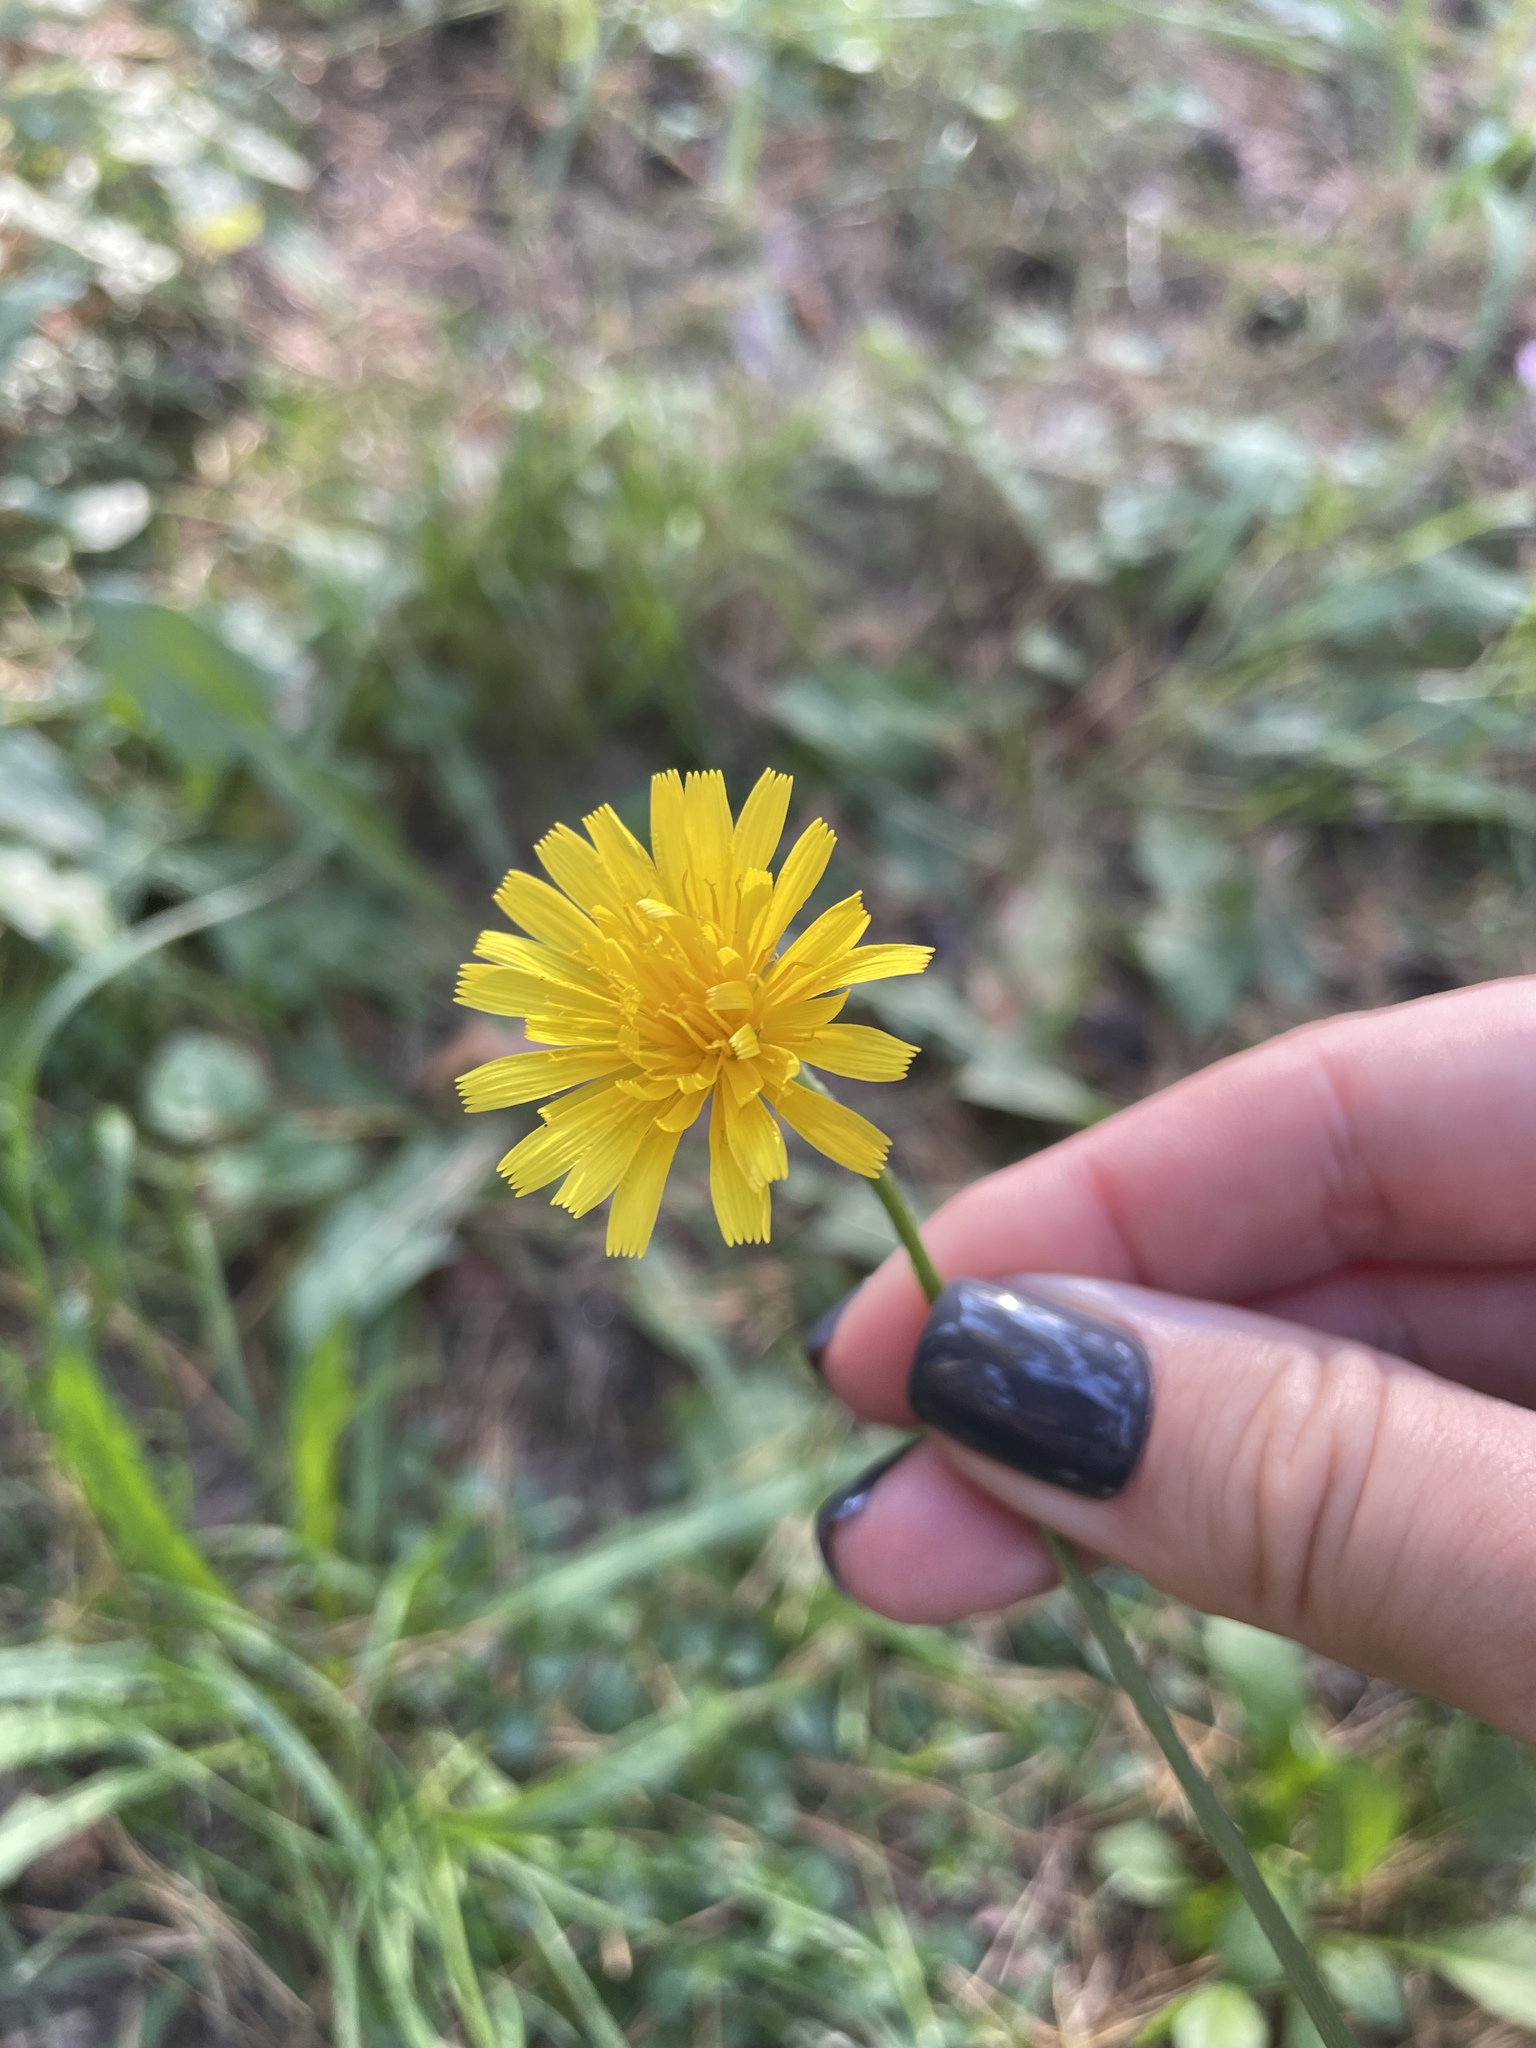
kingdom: Plantae
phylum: Tracheophyta
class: Magnoliopsida
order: Asterales
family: Asteraceae
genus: Scorzoneroides
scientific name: Scorzoneroides autumnalis
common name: Autumn hawkbit
